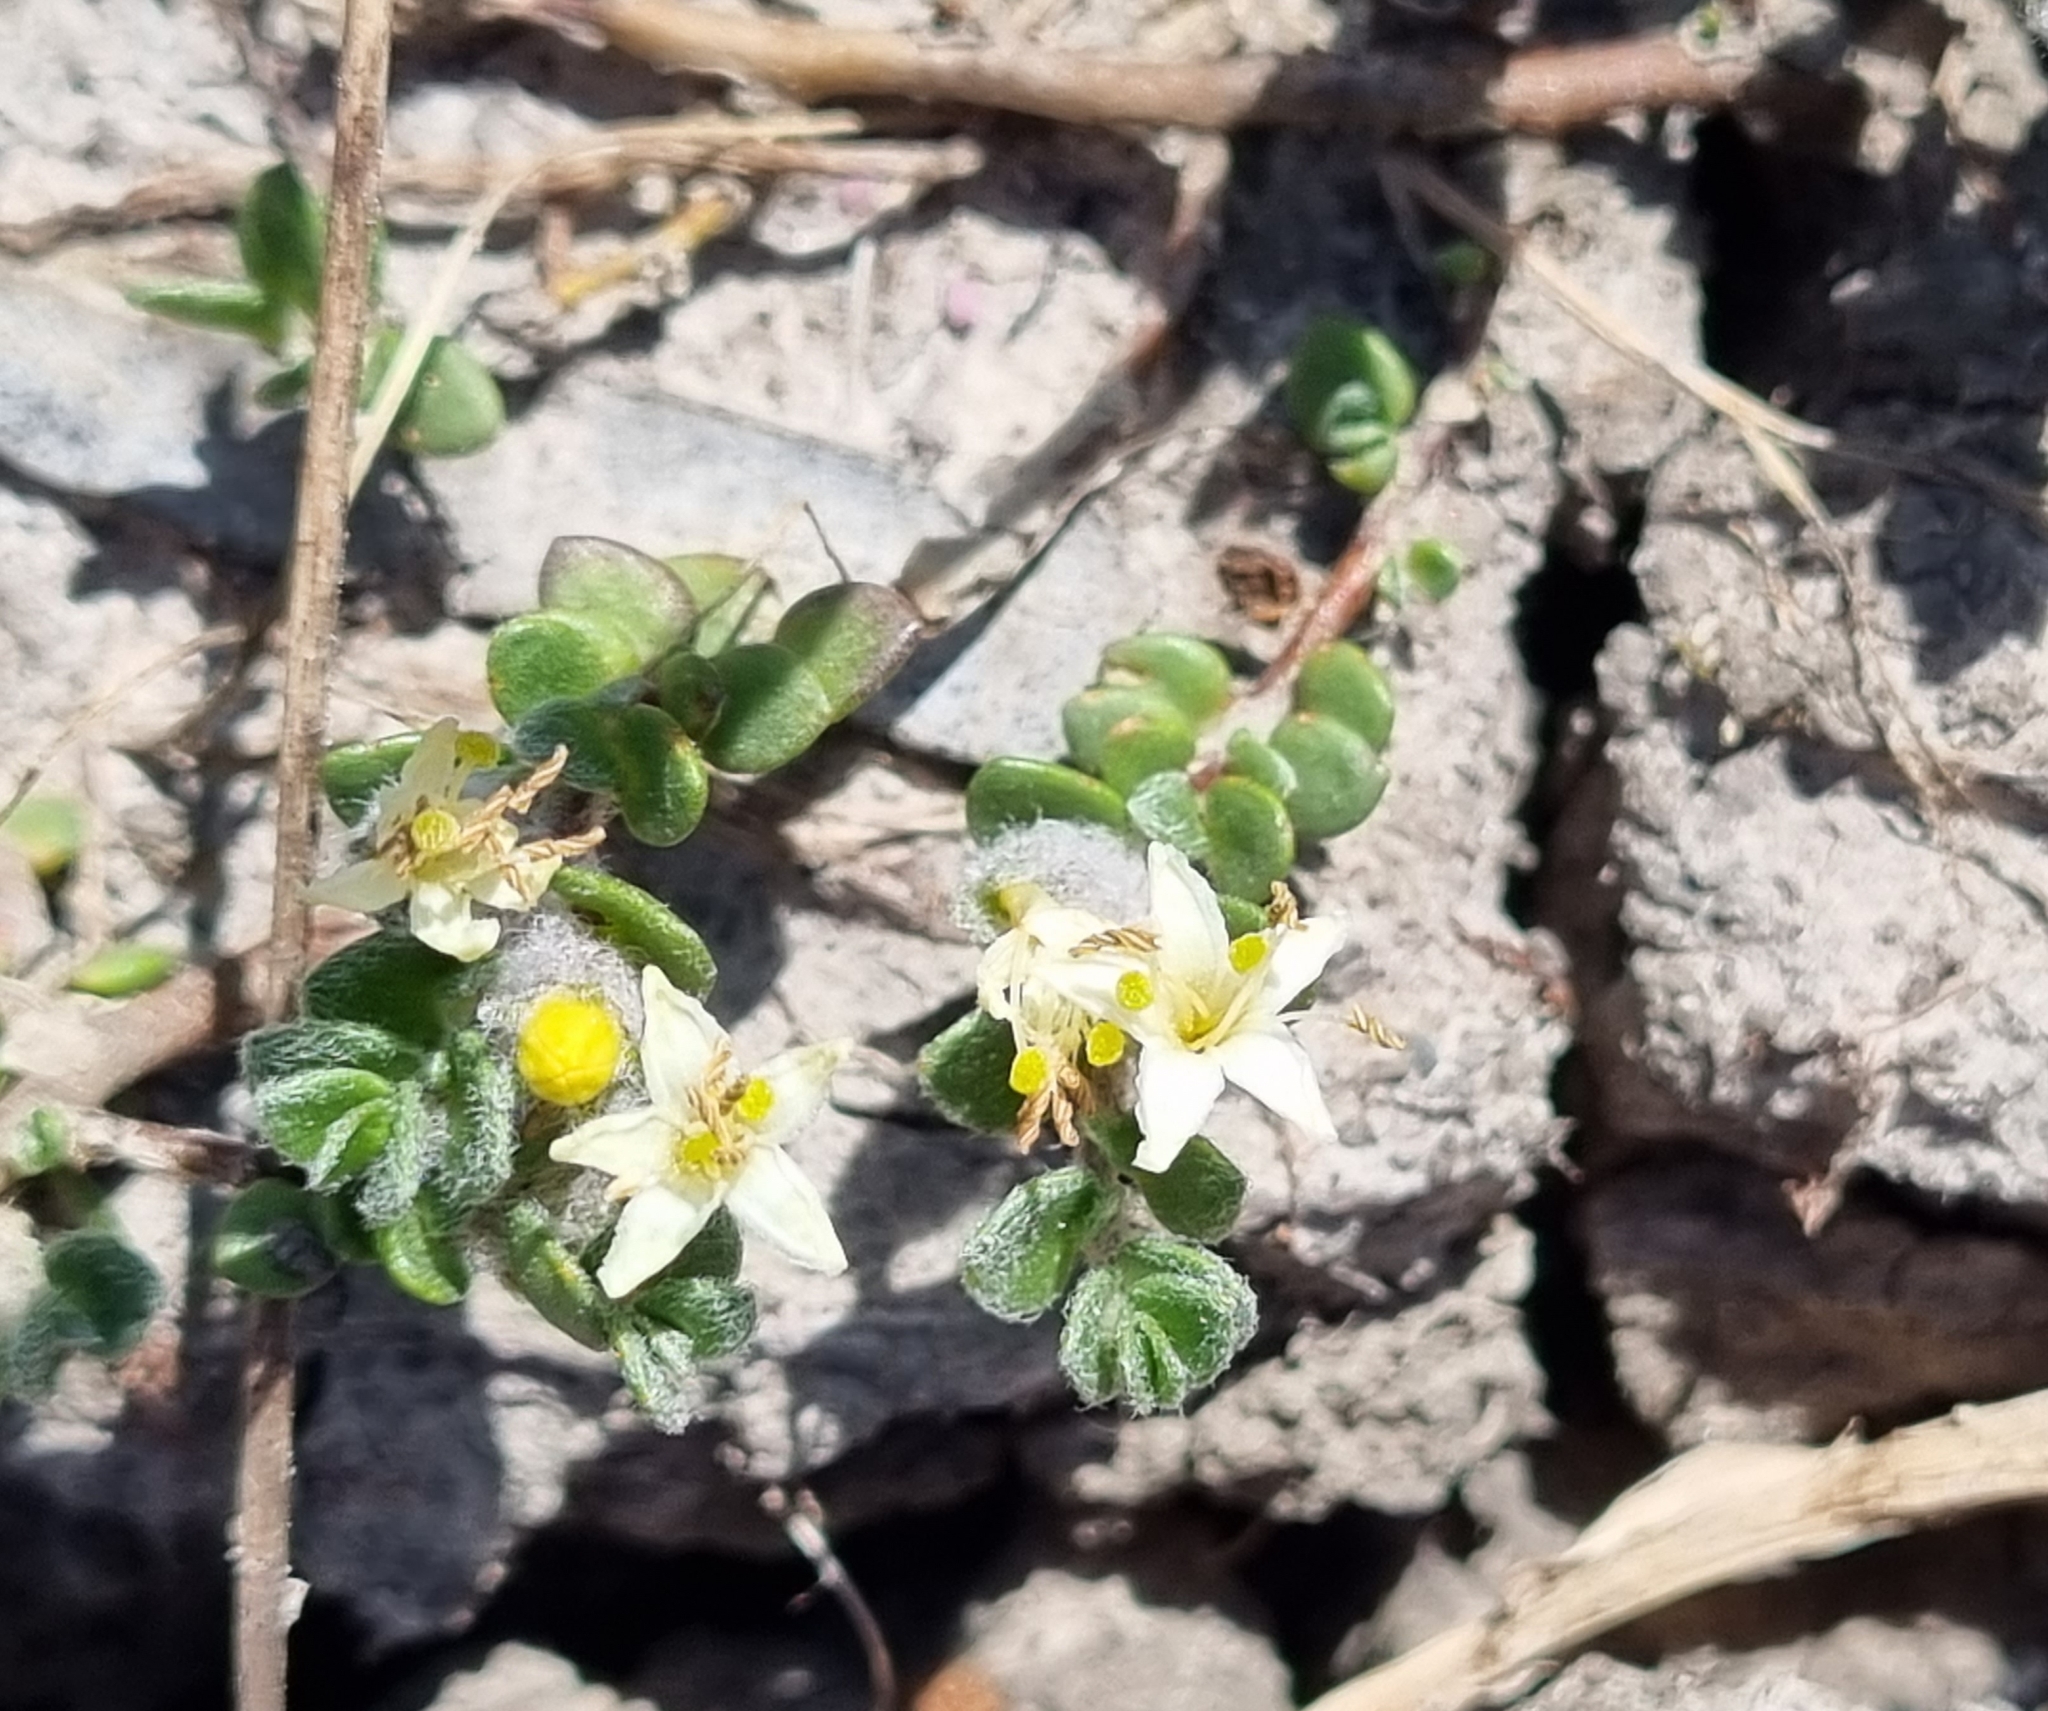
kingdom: Plantae
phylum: Tracheophyta
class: Magnoliopsida
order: Solanales
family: Convolvulaceae
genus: Wilsonia
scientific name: Wilsonia rotundifolia
